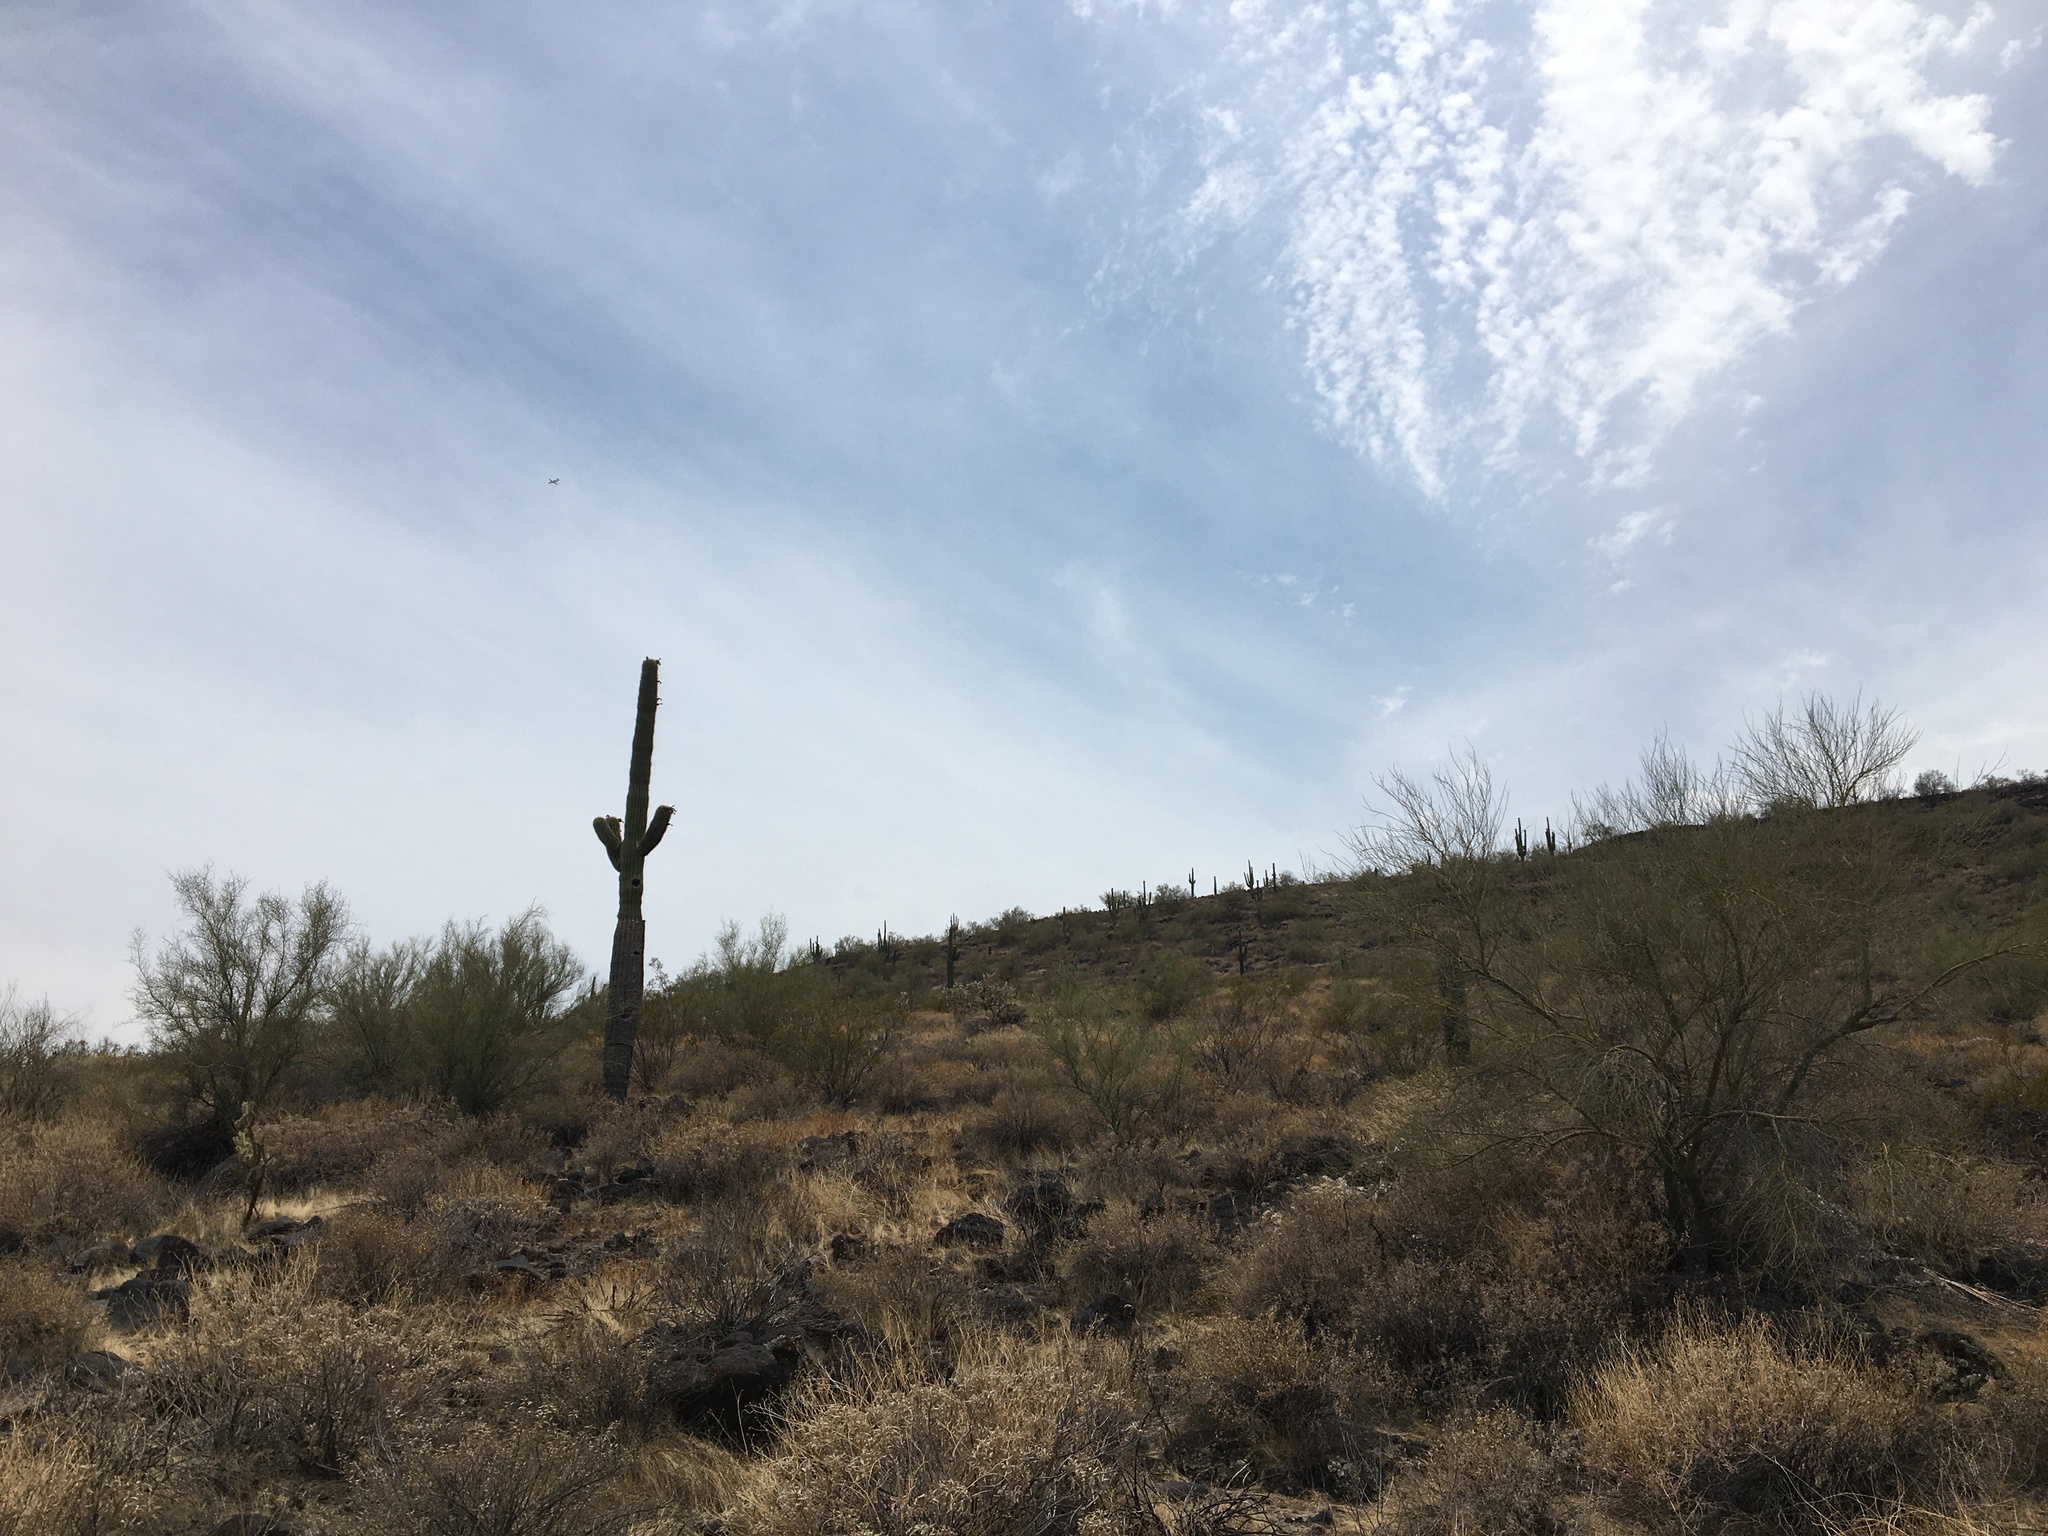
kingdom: Plantae
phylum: Tracheophyta
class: Magnoliopsida
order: Caryophyllales
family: Cactaceae
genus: Carnegiea
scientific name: Carnegiea gigantea
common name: Saguaro
